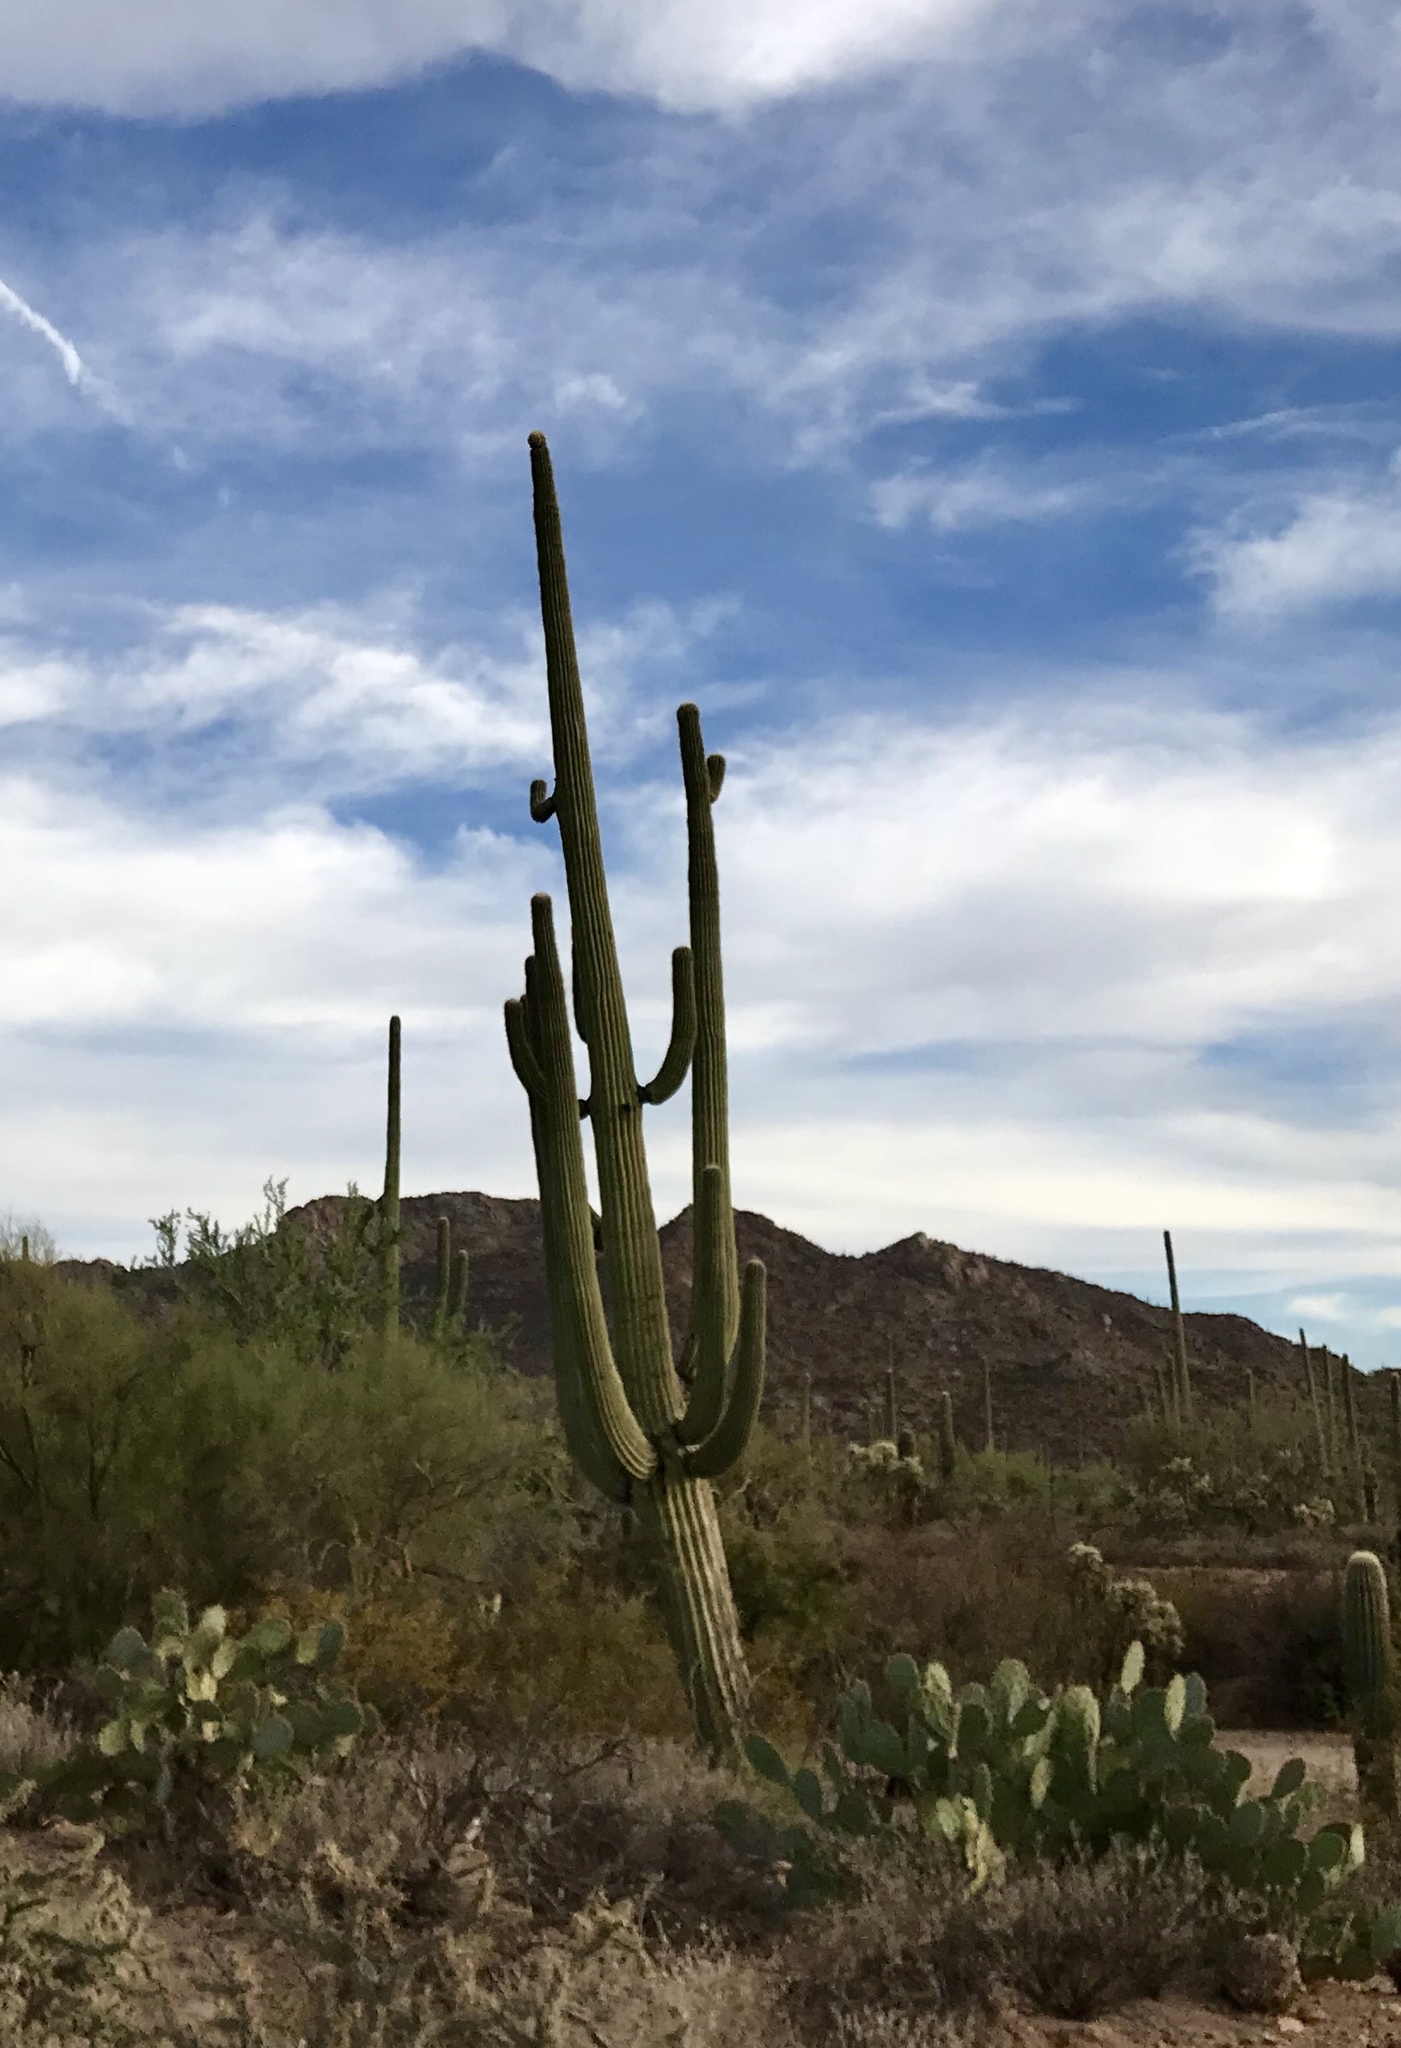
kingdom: Plantae
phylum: Tracheophyta
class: Magnoliopsida
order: Caryophyllales
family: Cactaceae
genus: Carnegiea
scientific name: Carnegiea gigantea
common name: Saguaro
